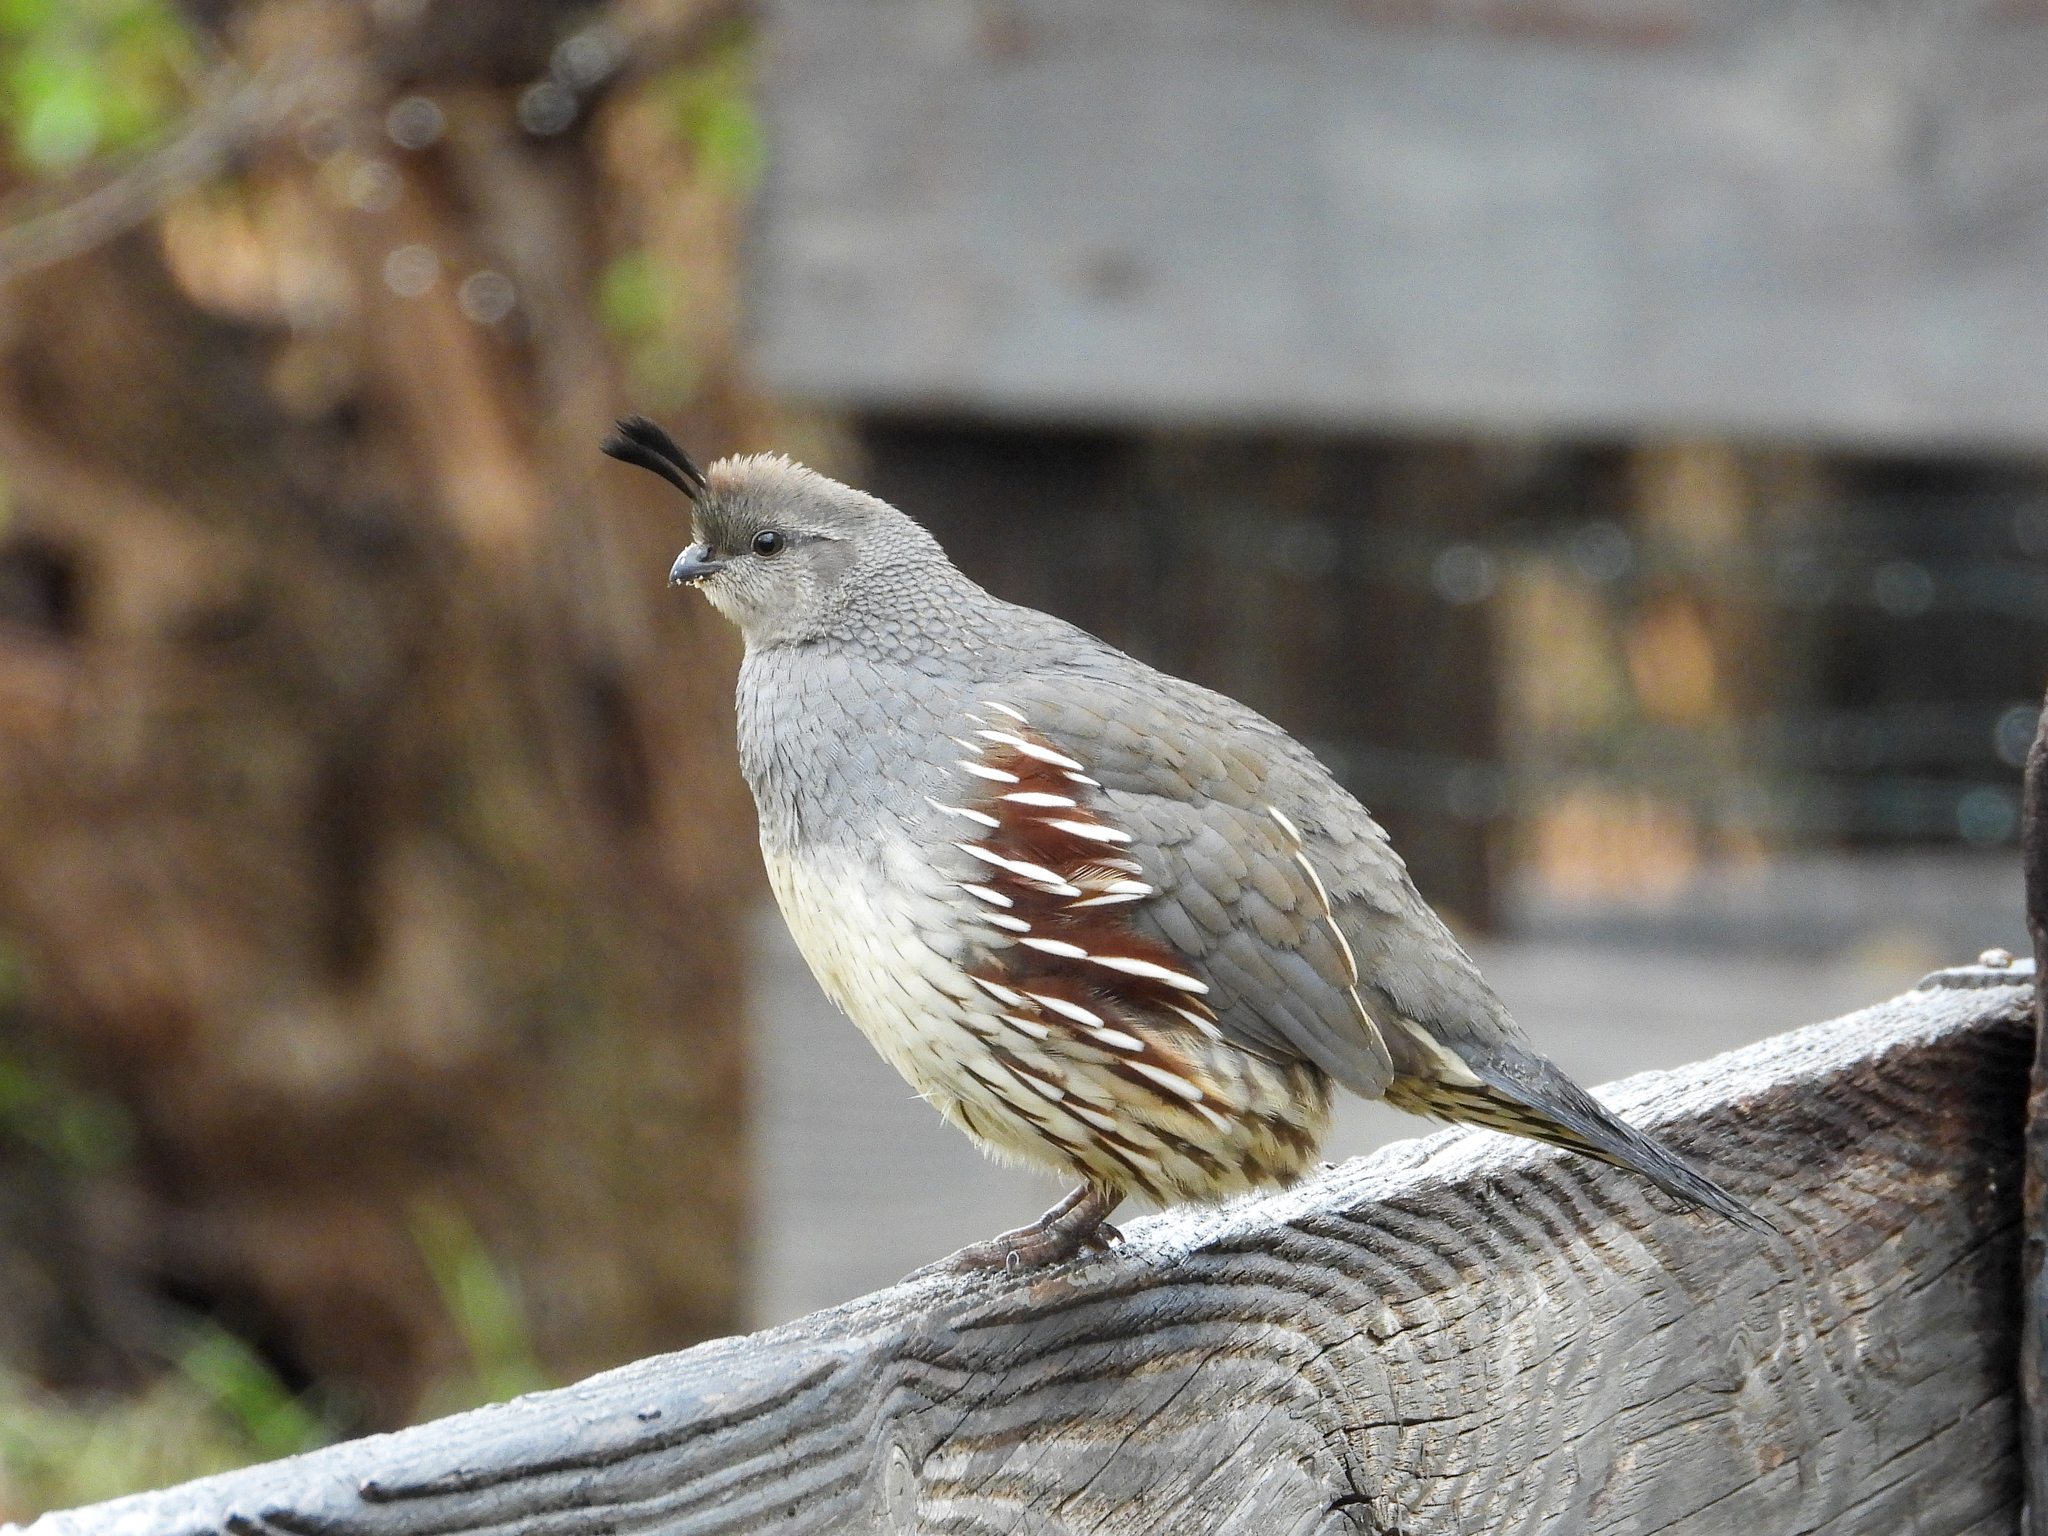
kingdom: Animalia
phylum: Chordata
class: Aves
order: Galliformes
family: Odontophoridae
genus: Callipepla
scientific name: Callipepla gambelii
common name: Gambel's quail
